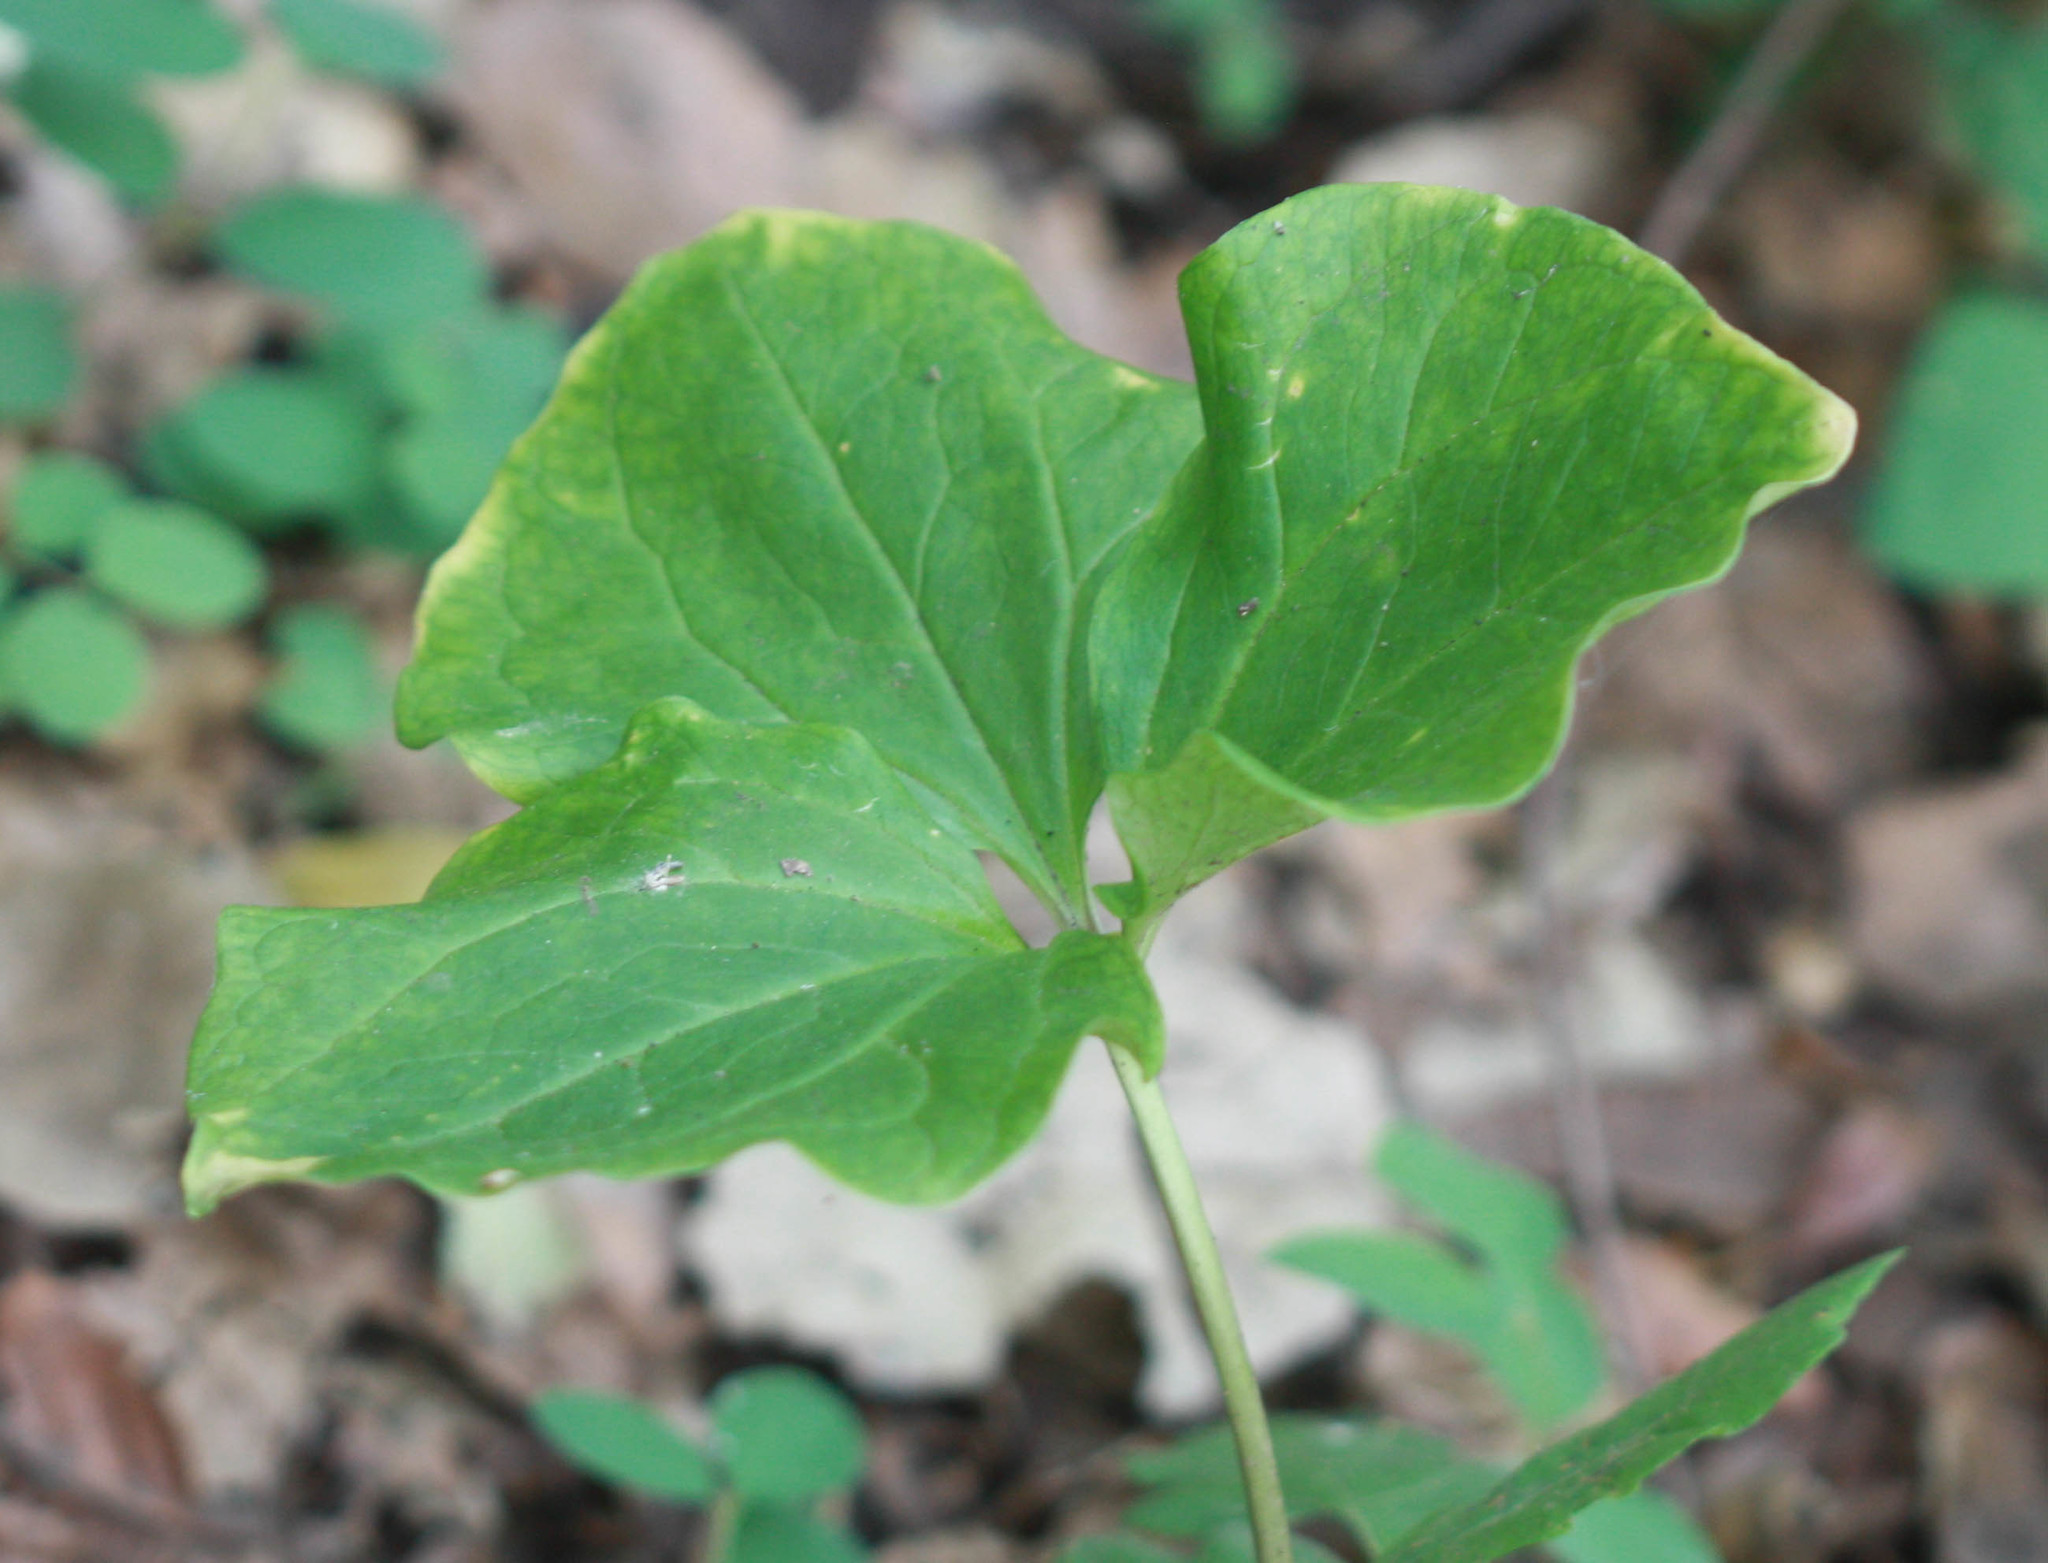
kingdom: Plantae
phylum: Tracheophyta
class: Liliopsida
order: Liliales
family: Melanthiaceae
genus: Trillium
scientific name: Trillium chloropetalum
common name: Giant trillium
